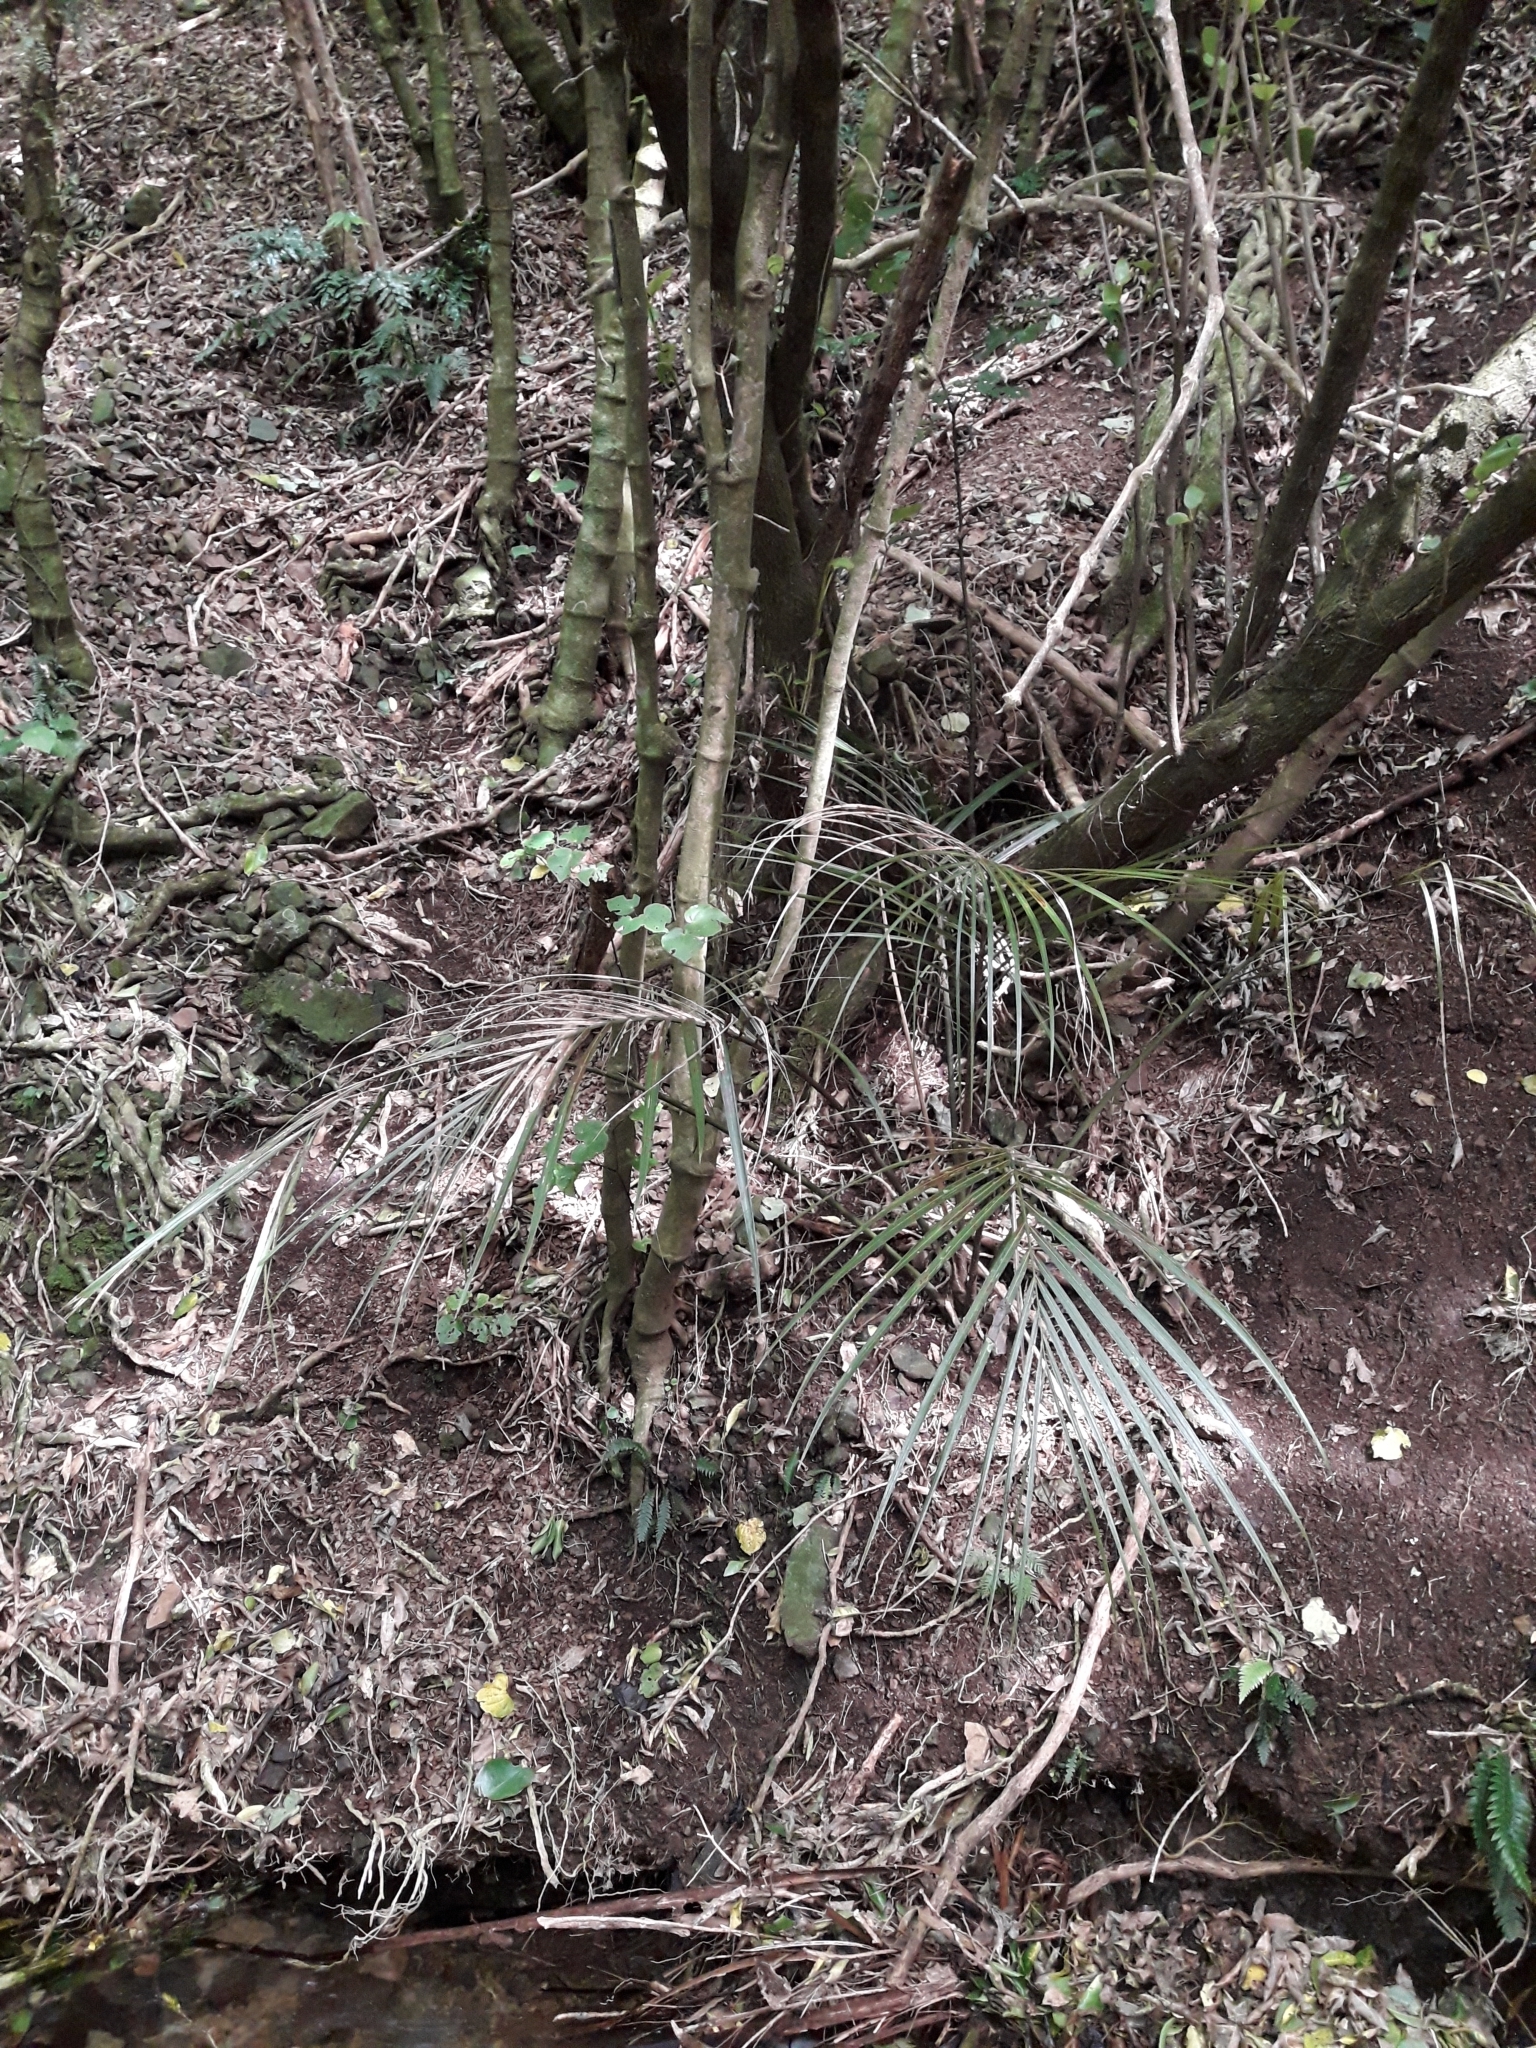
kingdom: Plantae
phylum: Tracheophyta
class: Liliopsida
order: Arecales
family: Arecaceae
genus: Rhopalostylis
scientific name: Rhopalostylis sapida
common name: Feather-duster palm
